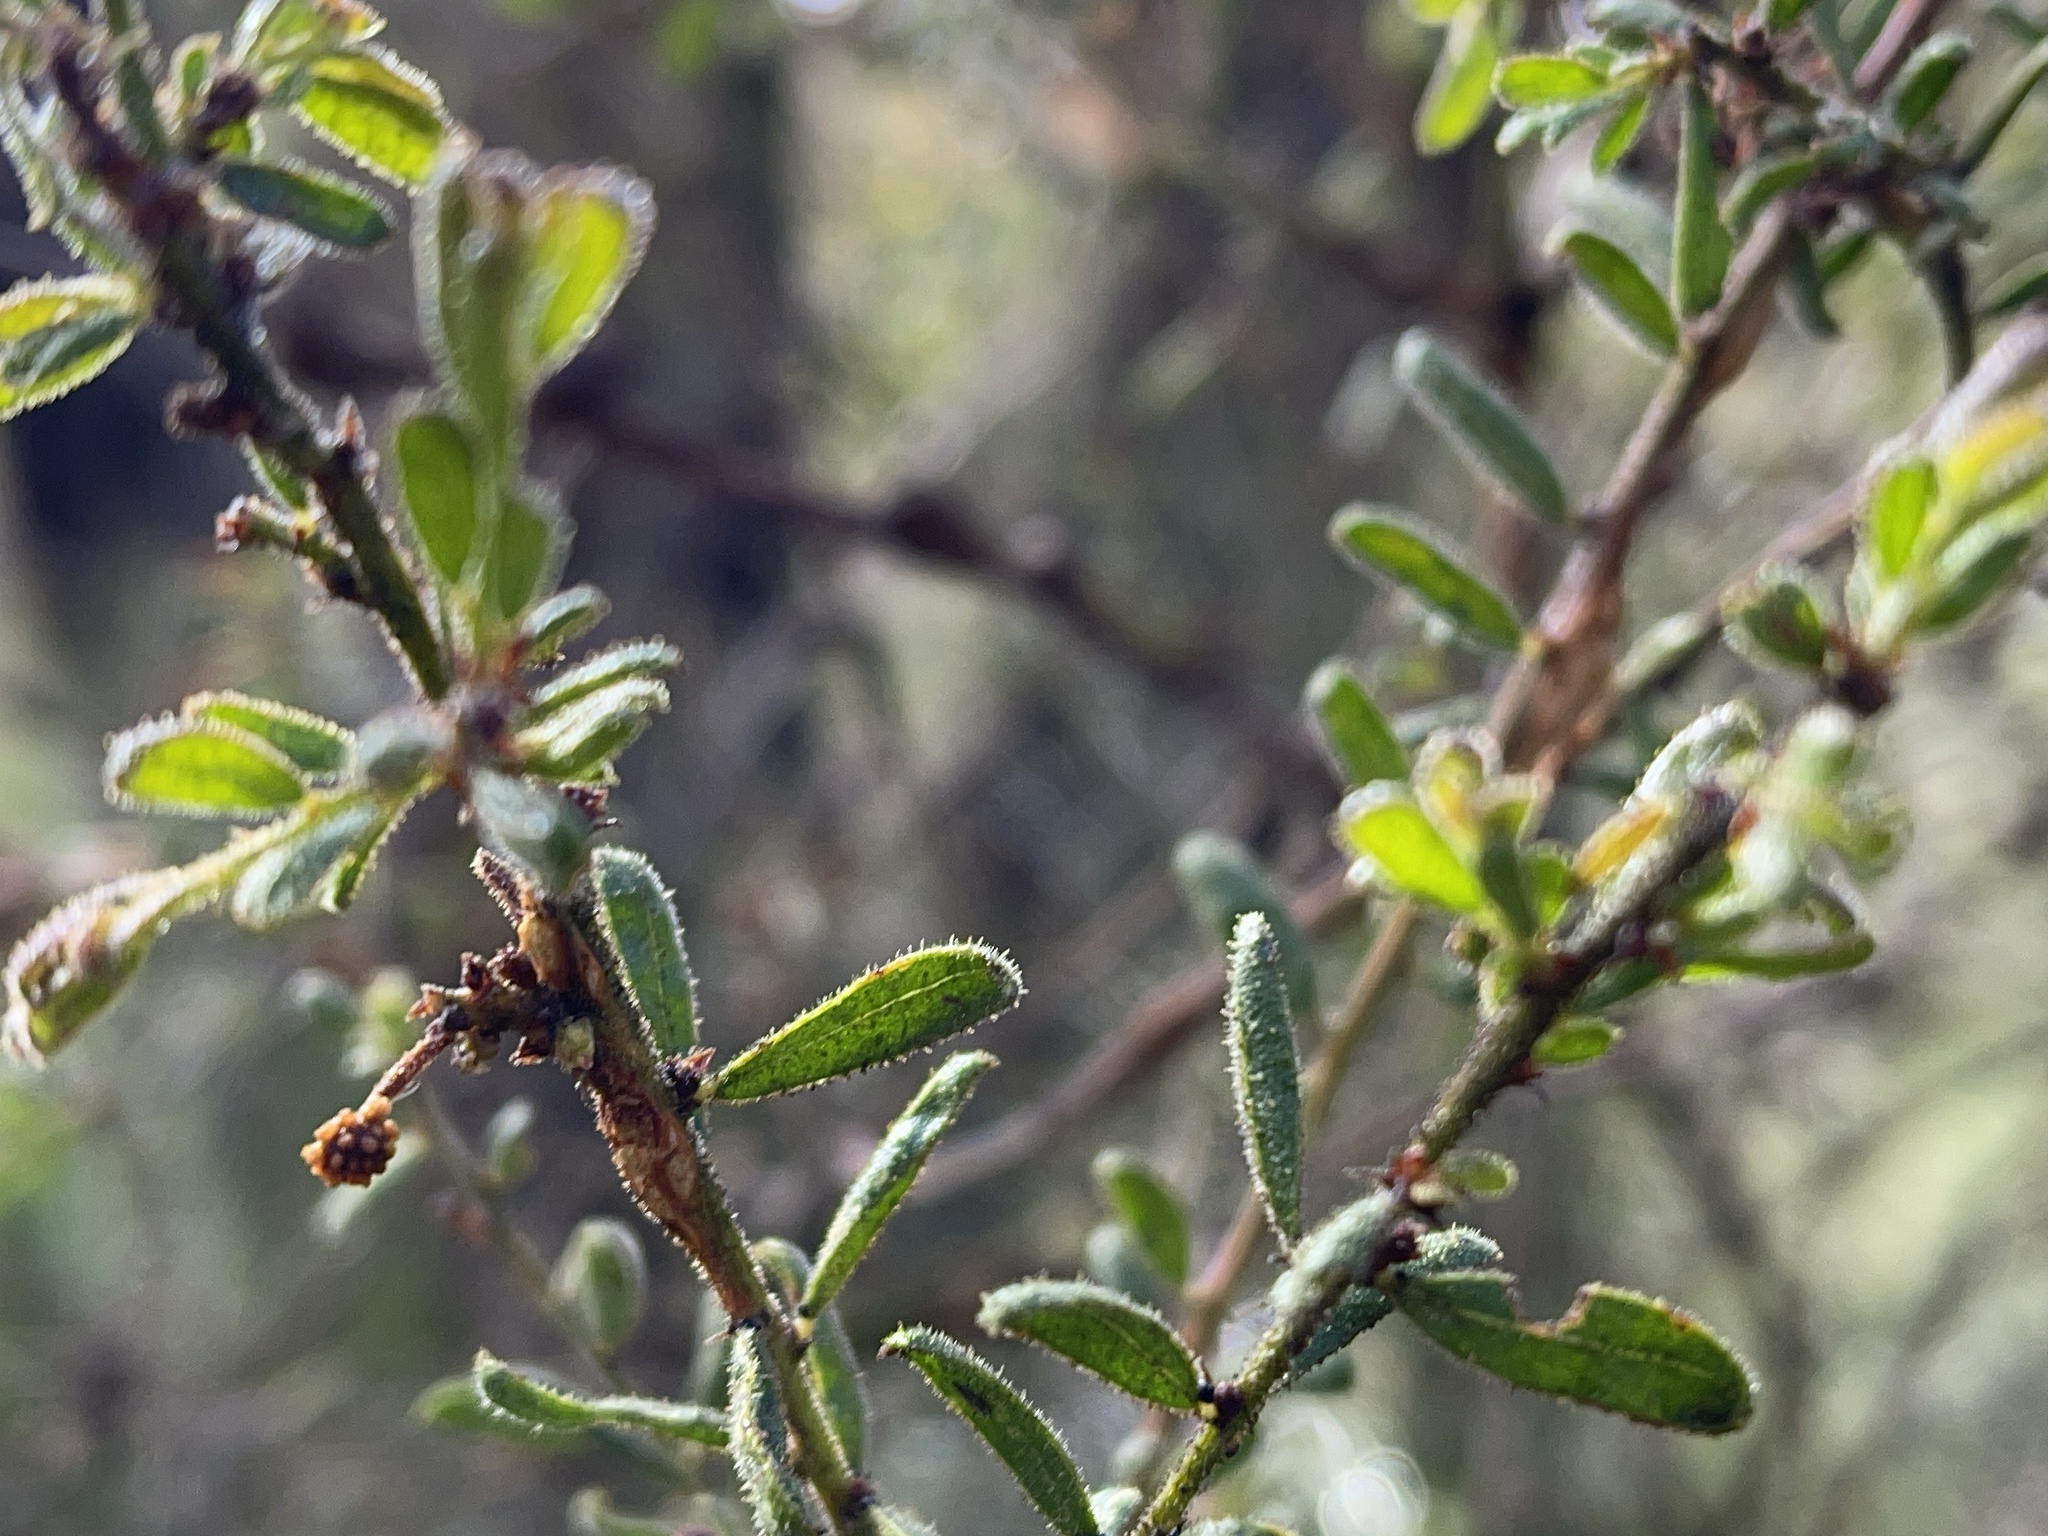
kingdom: Plantae
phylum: Tracheophyta
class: Magnoliopsida
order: Fabales
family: Fabaceae
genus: Acacia
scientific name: Acacia aspera
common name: Rough wattle
